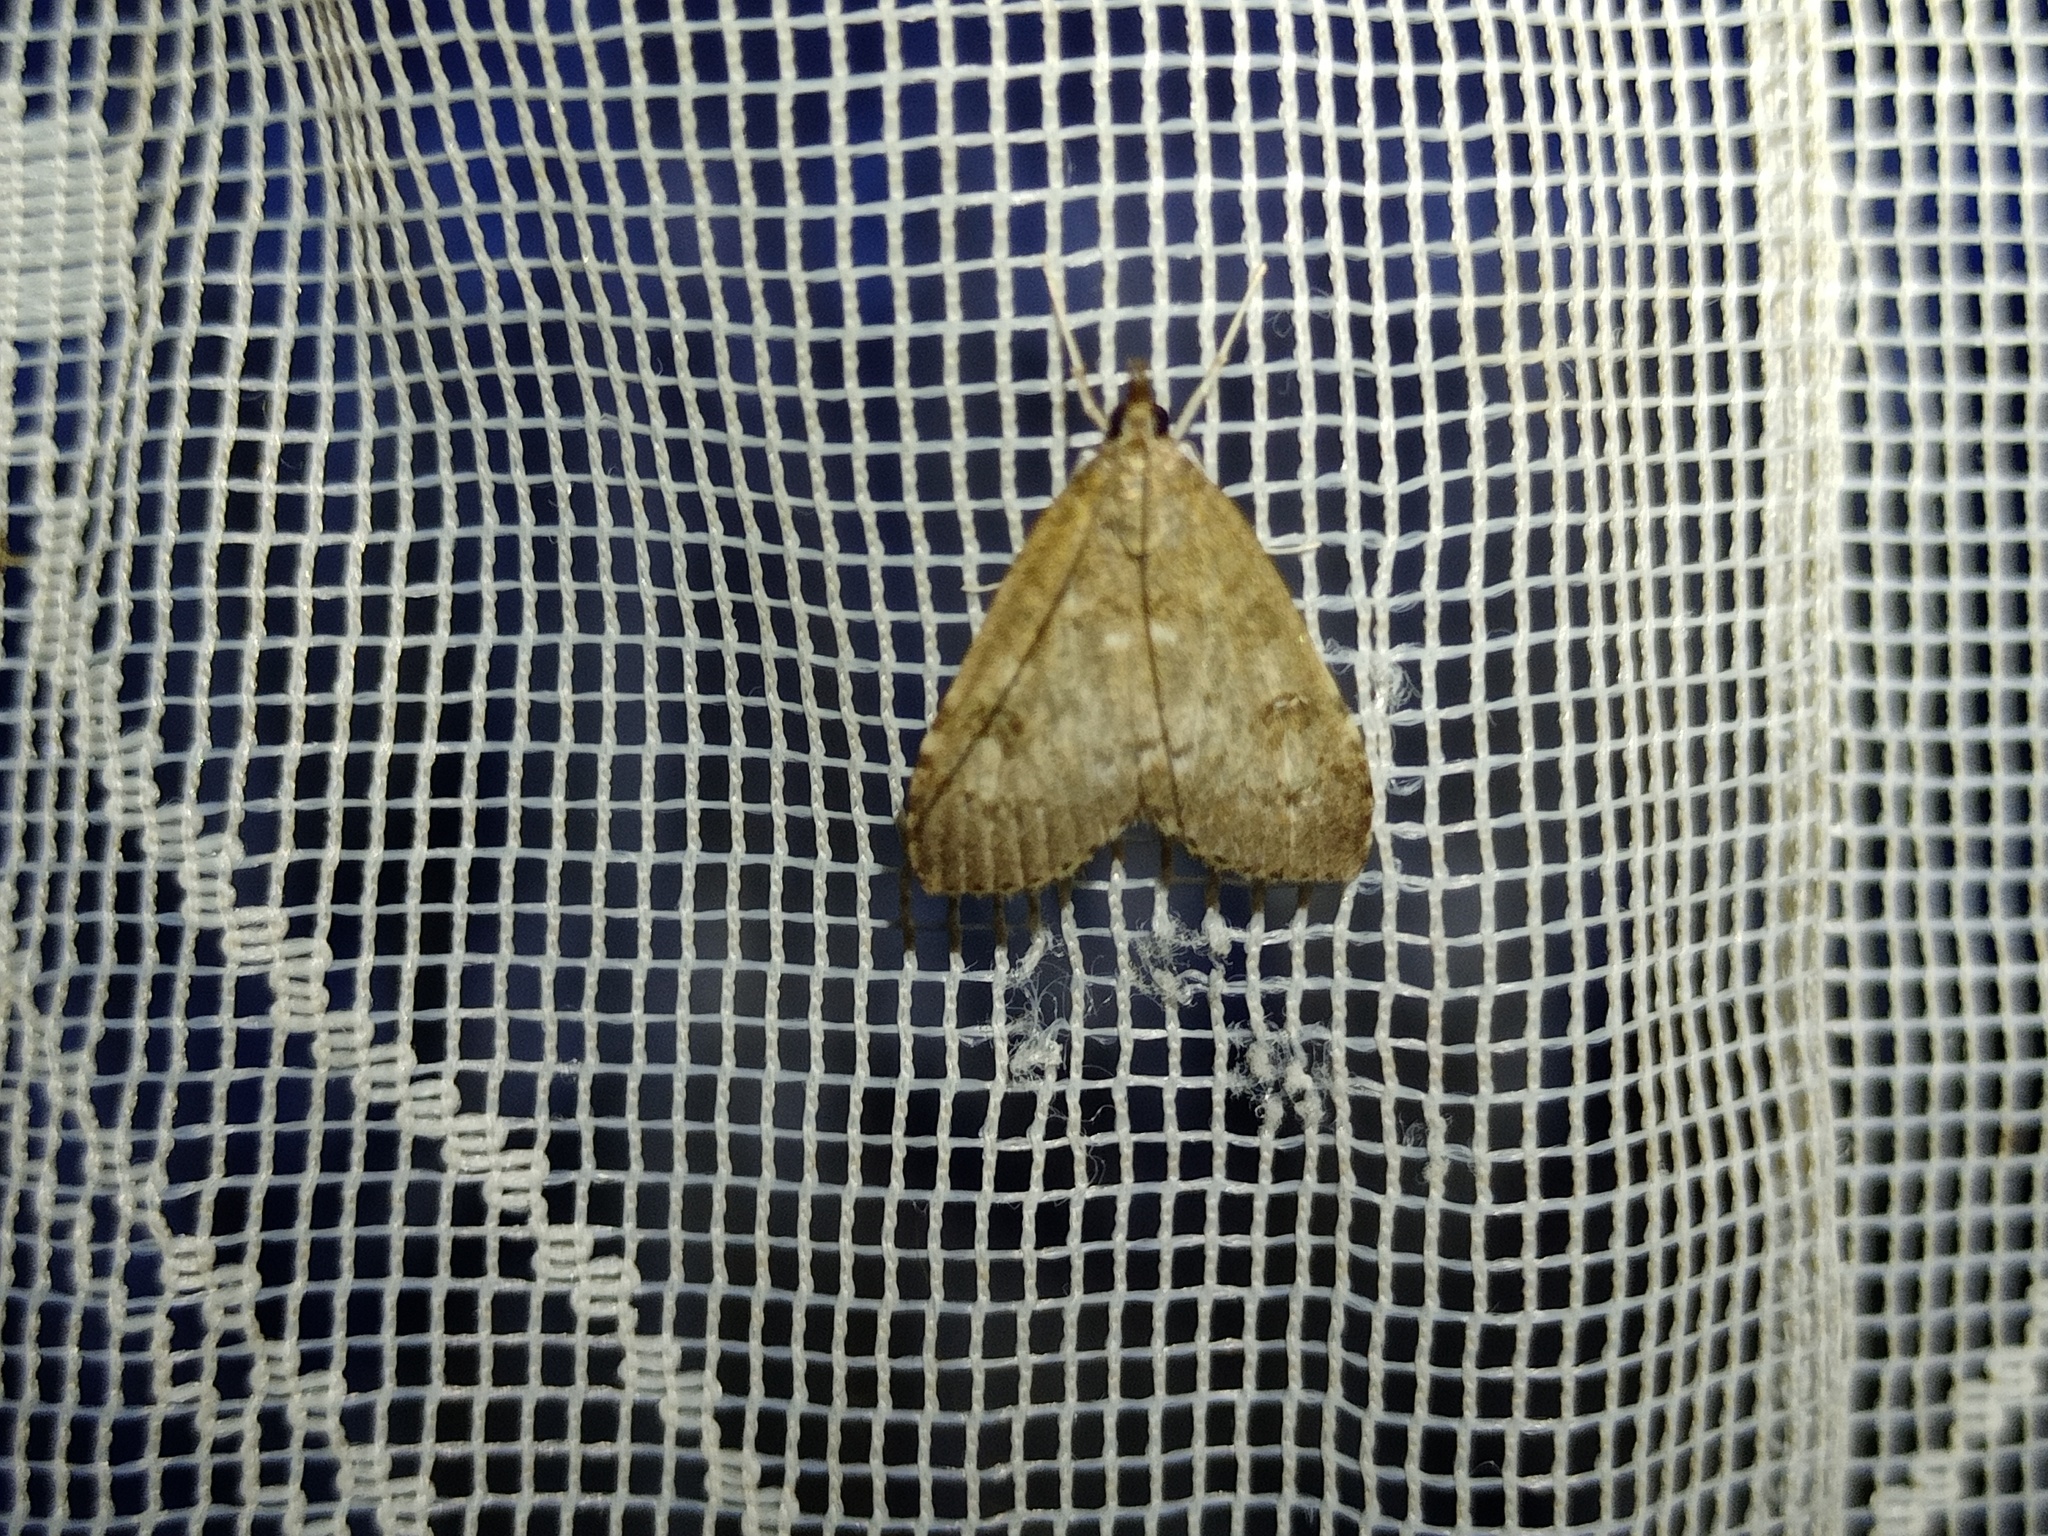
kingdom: Animalia
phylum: Arthropoda
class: Insecta
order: Lepidoptera
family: Crambidae
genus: Udea
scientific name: Udea prunalis
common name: Dusky pearl
